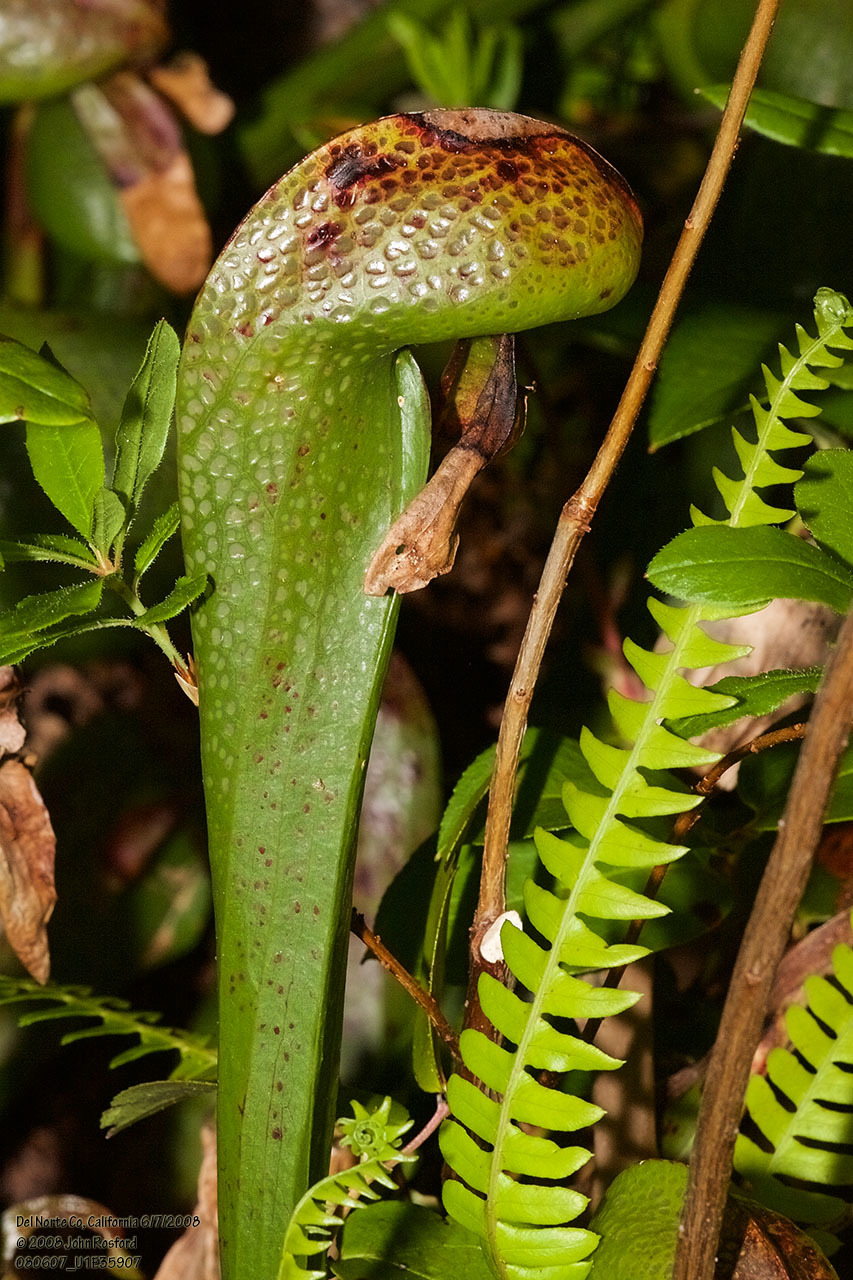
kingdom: Plantae
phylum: Tracheophyta
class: Magnoliopsida
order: Ericales
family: Sarraceniaceae
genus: Darlingtonia
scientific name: Darlingtonia californica
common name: California pitcher plant
